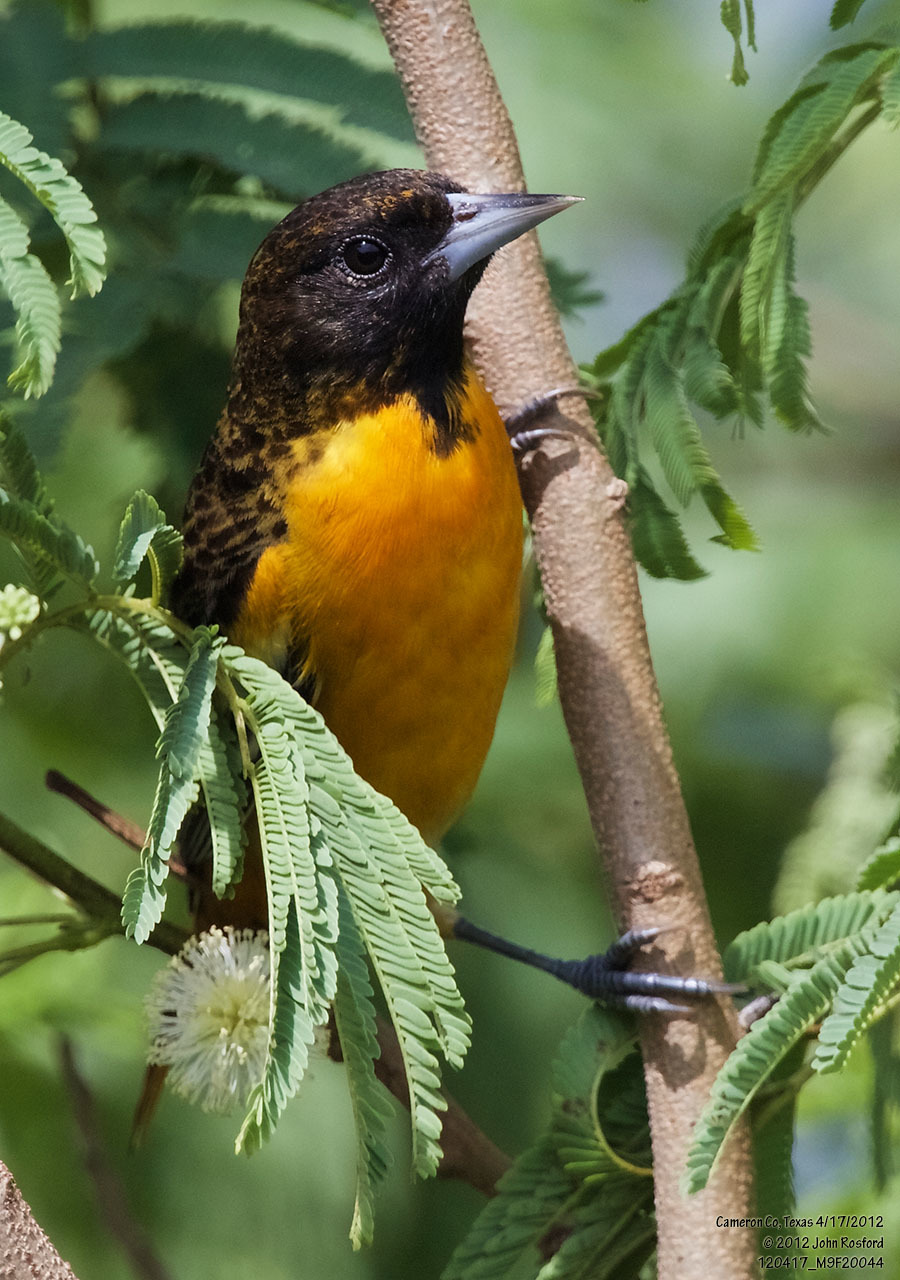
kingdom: Animalia
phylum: Chordata
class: Aves
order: Passeriformes
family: Icteridae
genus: Icterus
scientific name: Icterus galbula
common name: Baltimore oriole
